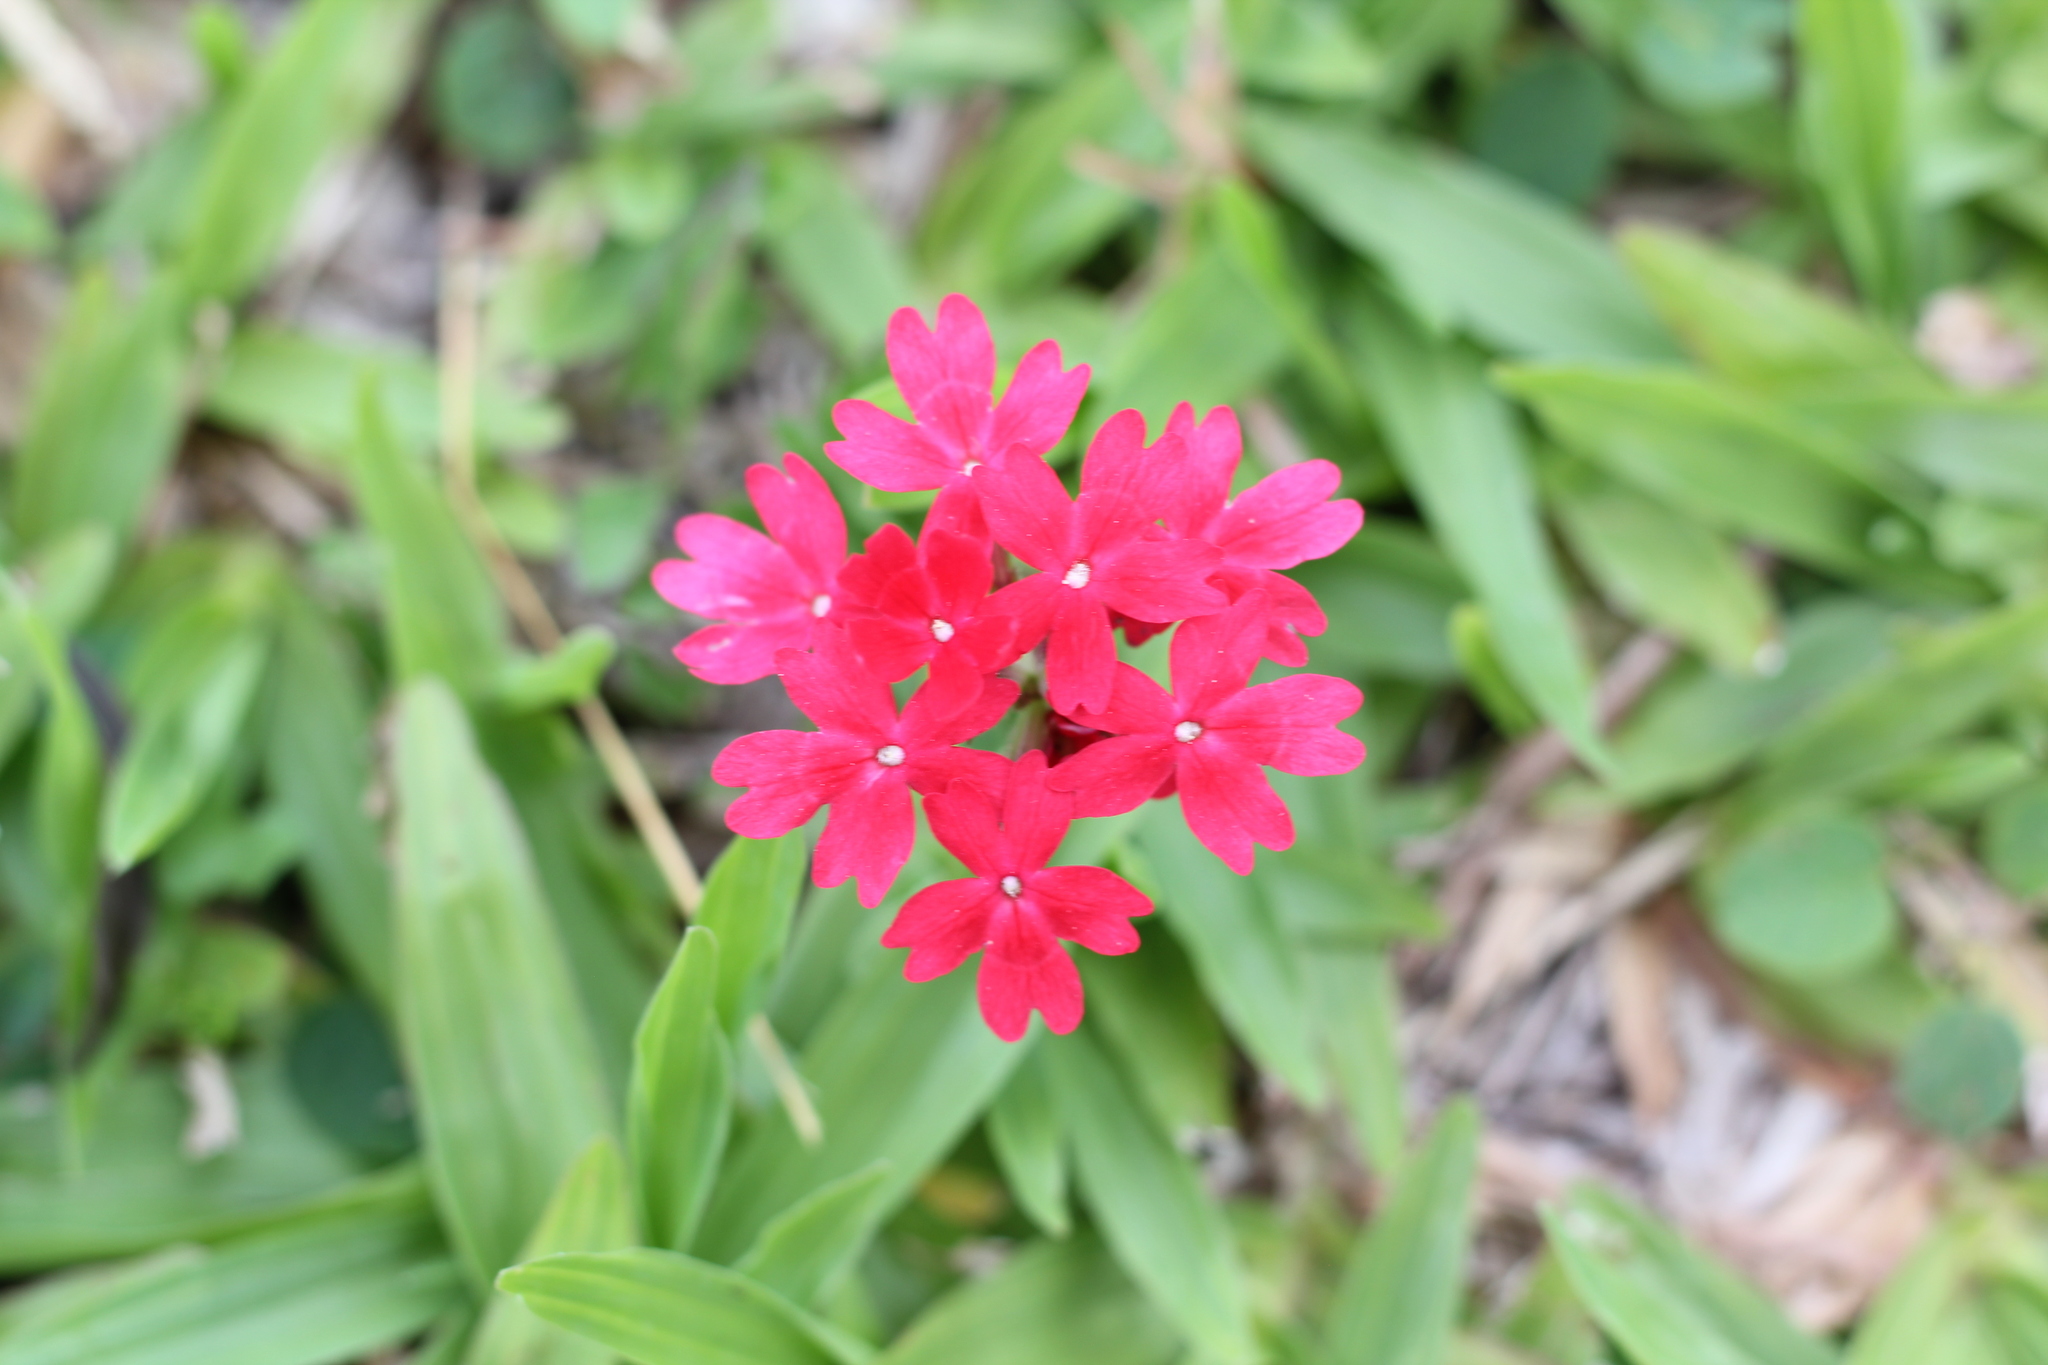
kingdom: Plantae
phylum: Tracheophyta
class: Magnoliopsida
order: Lamiales
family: Verbenaceae
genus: Verbena
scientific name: Verbena peruviana
